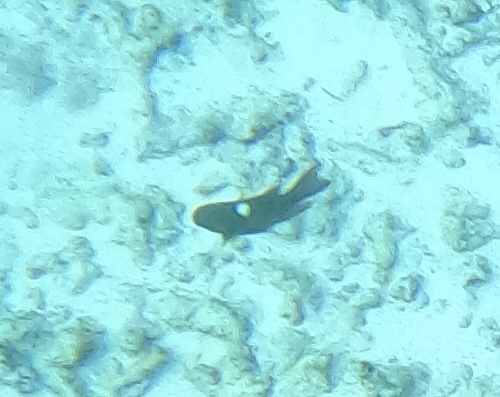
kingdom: Animalia
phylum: Chordata
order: Perciformes
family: Pomacentridae
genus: Dischistodus
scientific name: Dischistodus pseudochrysopoecilus
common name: Monarch damsel
